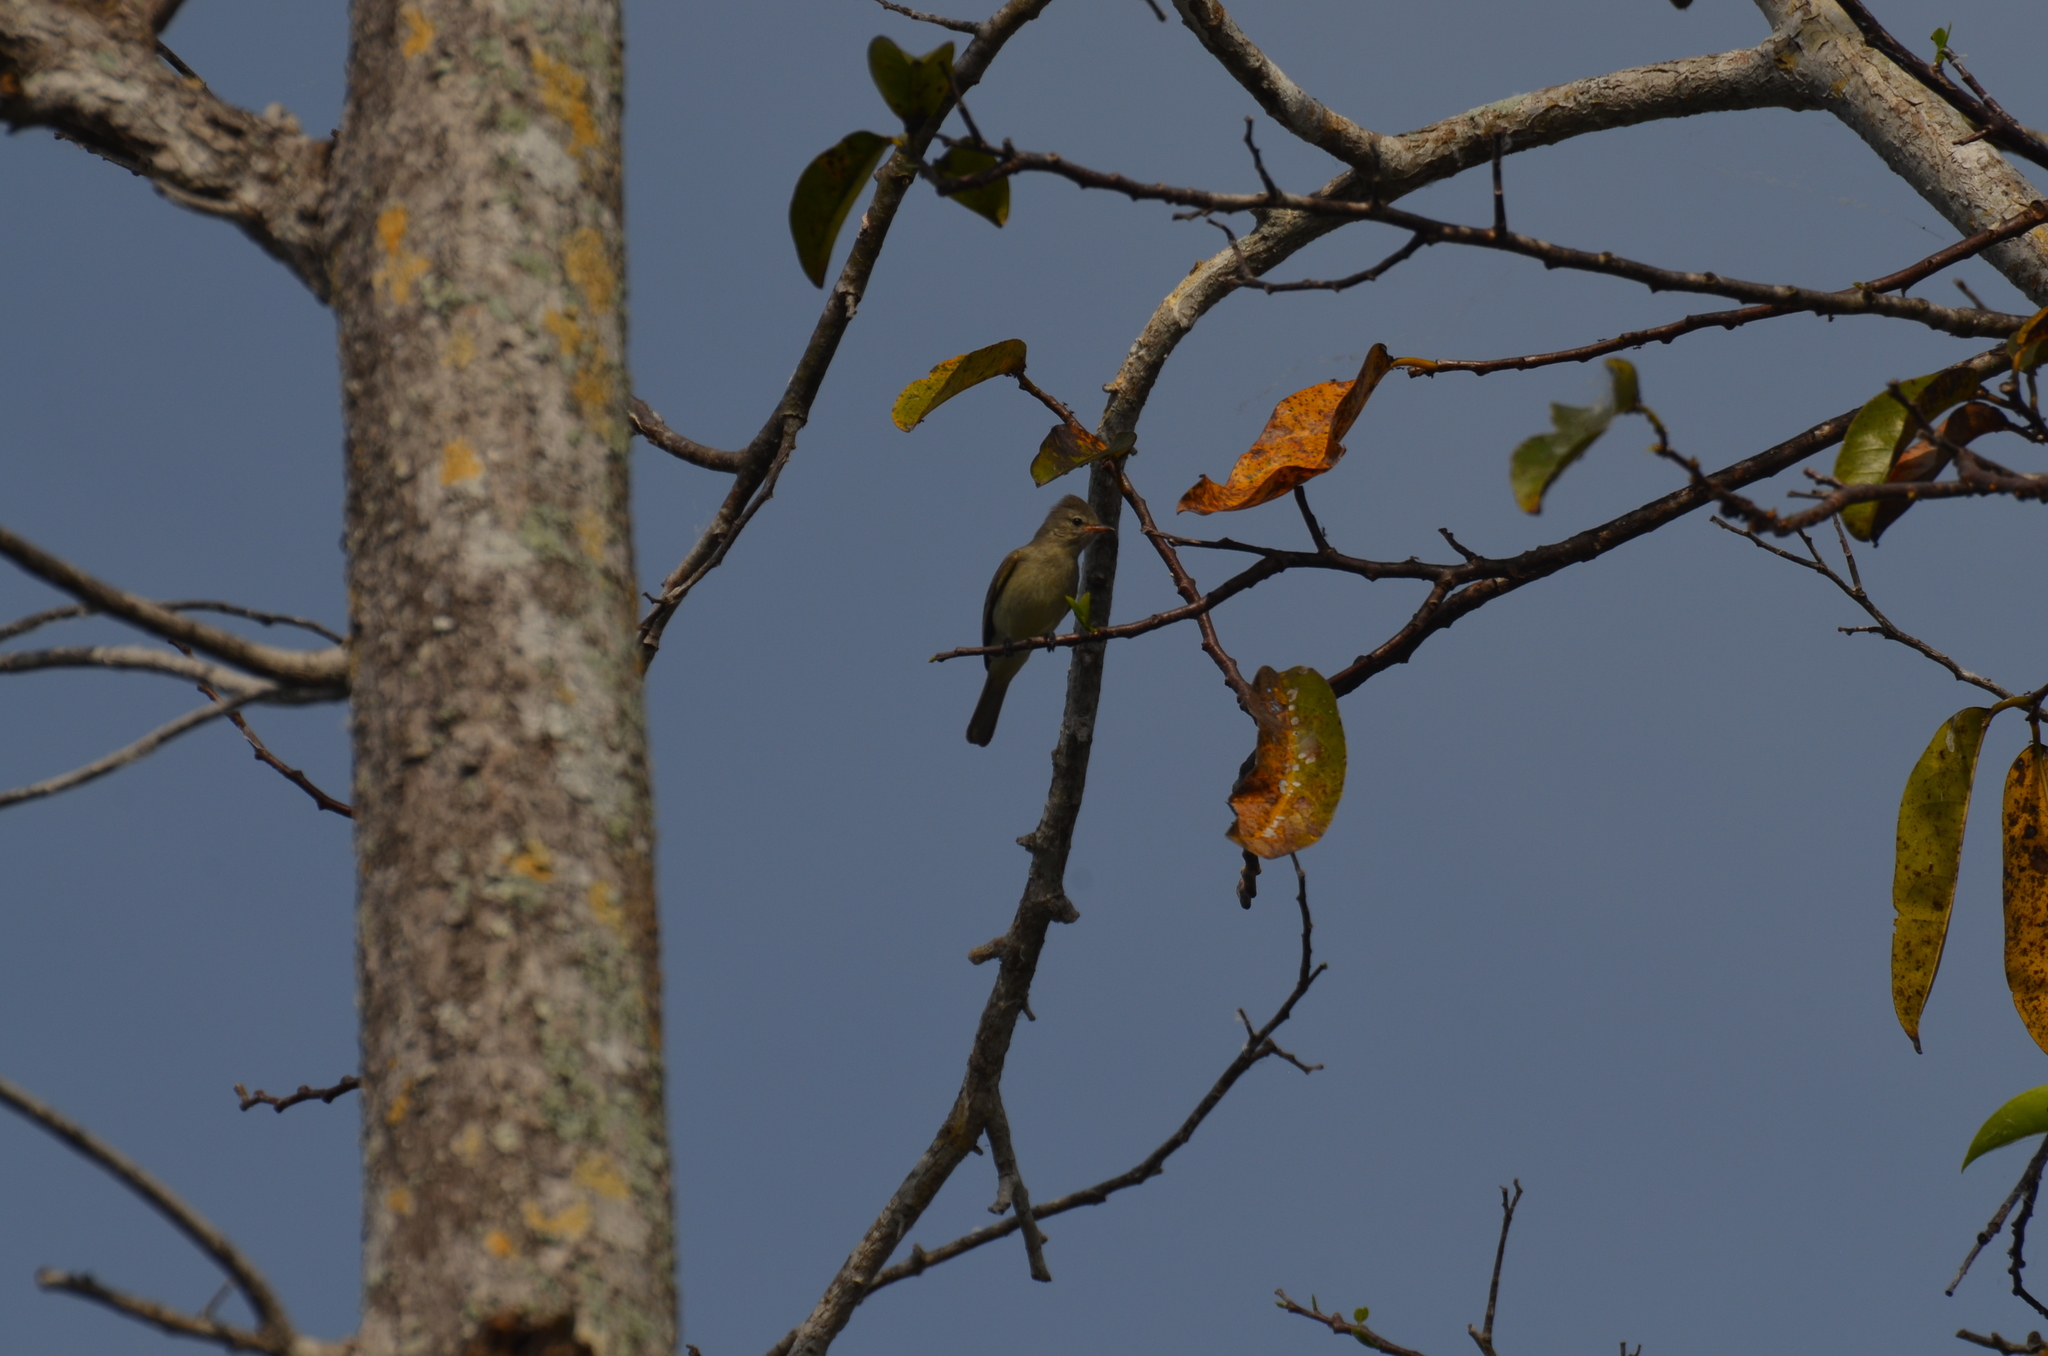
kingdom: Animalia
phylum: Chordata
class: Aves
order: Passeriformes
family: Tyrannidae
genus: Camptostoma
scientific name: Camptostoma imberbe
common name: Northern beardless-tyrannulet
